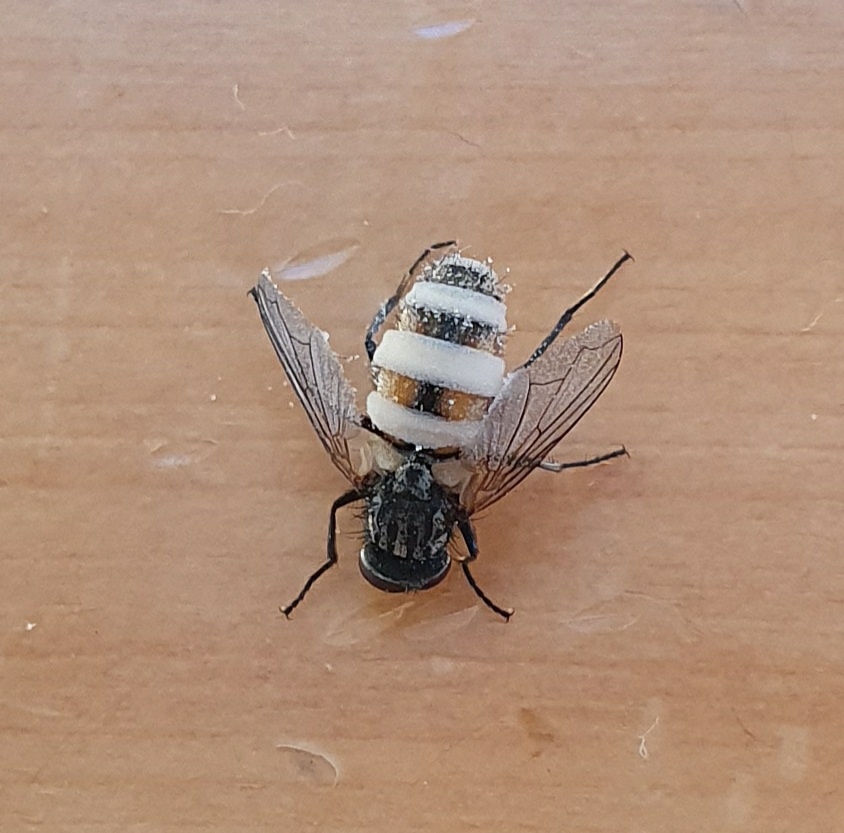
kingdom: Animalia
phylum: Arthropoda
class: Insecta
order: Diptera
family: Muscidae
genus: Musca
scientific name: Musca domestica
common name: House fly
